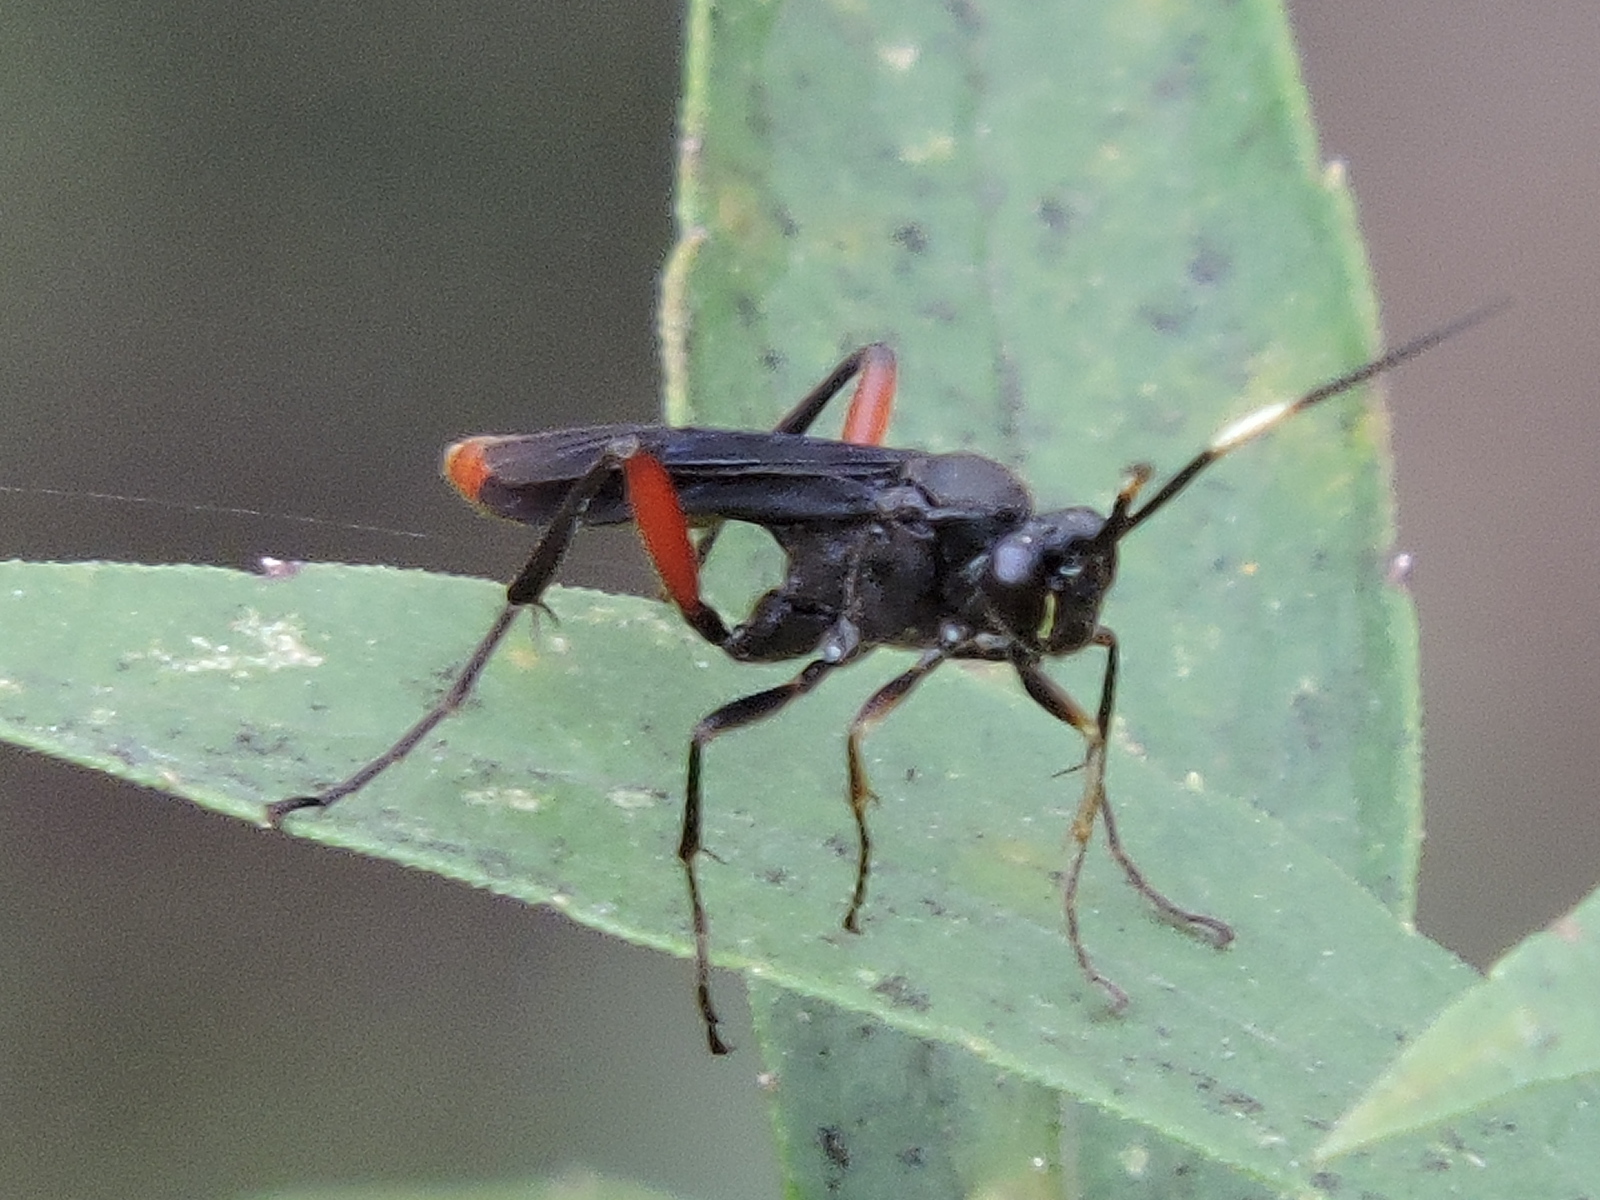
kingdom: Animalia
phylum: Arthropoda
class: Insecta
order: Hymenoptera
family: Ichneumonidae
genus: Limonethe
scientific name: Limonethe maurator
